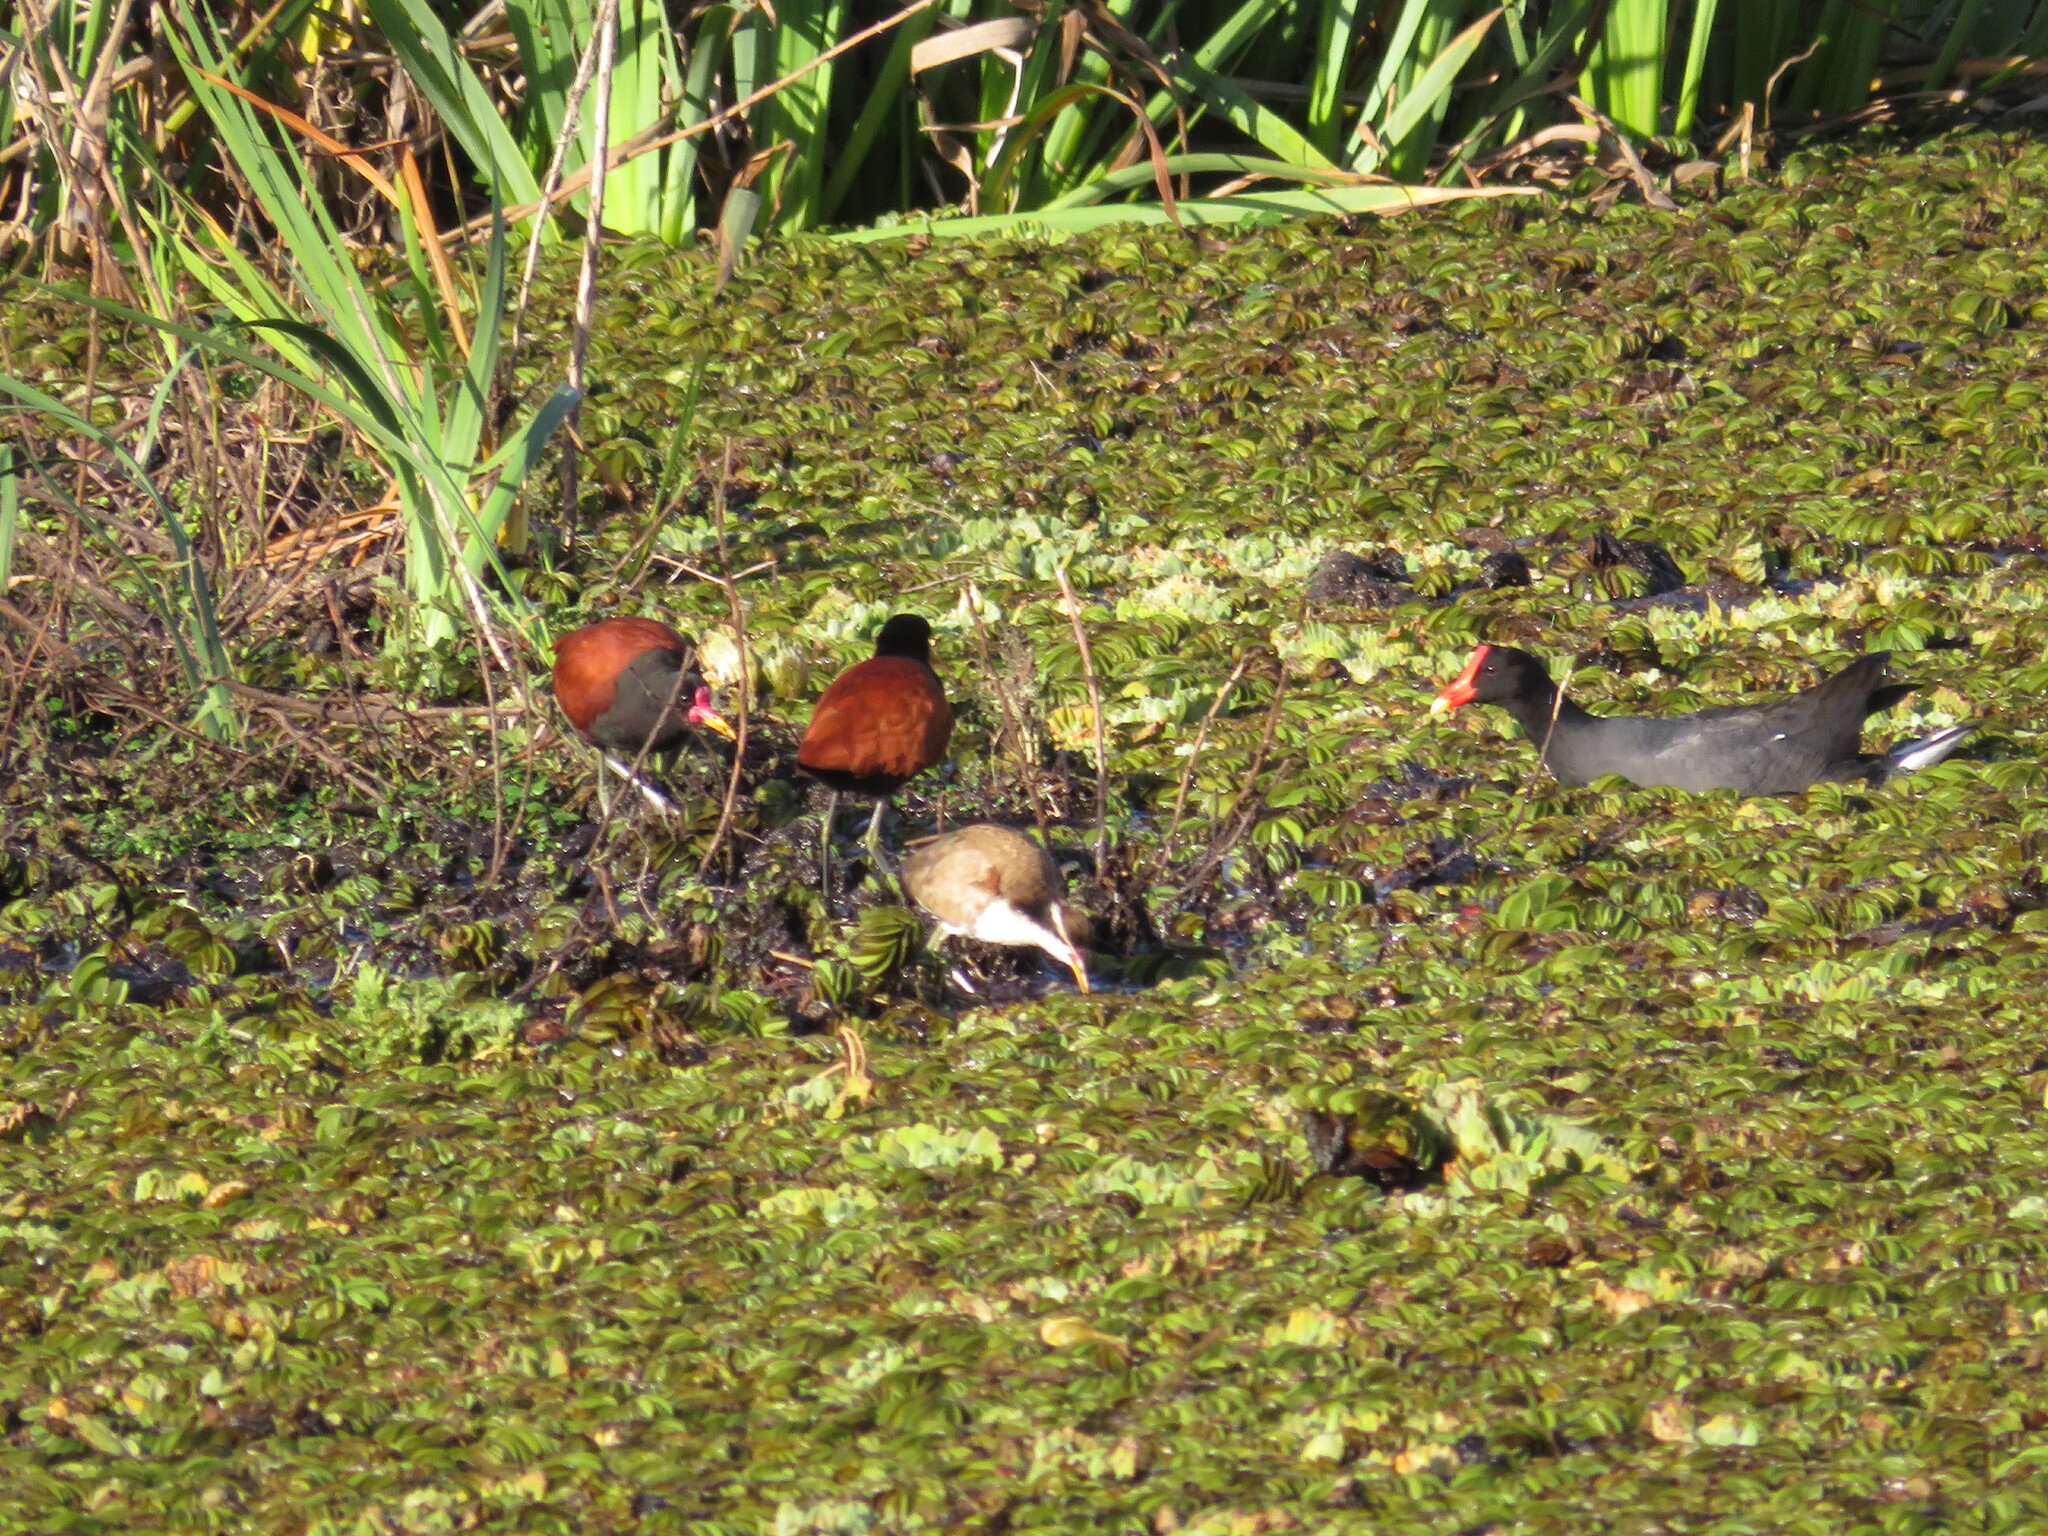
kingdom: Animalia
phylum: Chordata
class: Aves
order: Charadriiformes
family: Jacanidae
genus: Jacana
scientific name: Jacana jacana
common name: Wattled jacana
